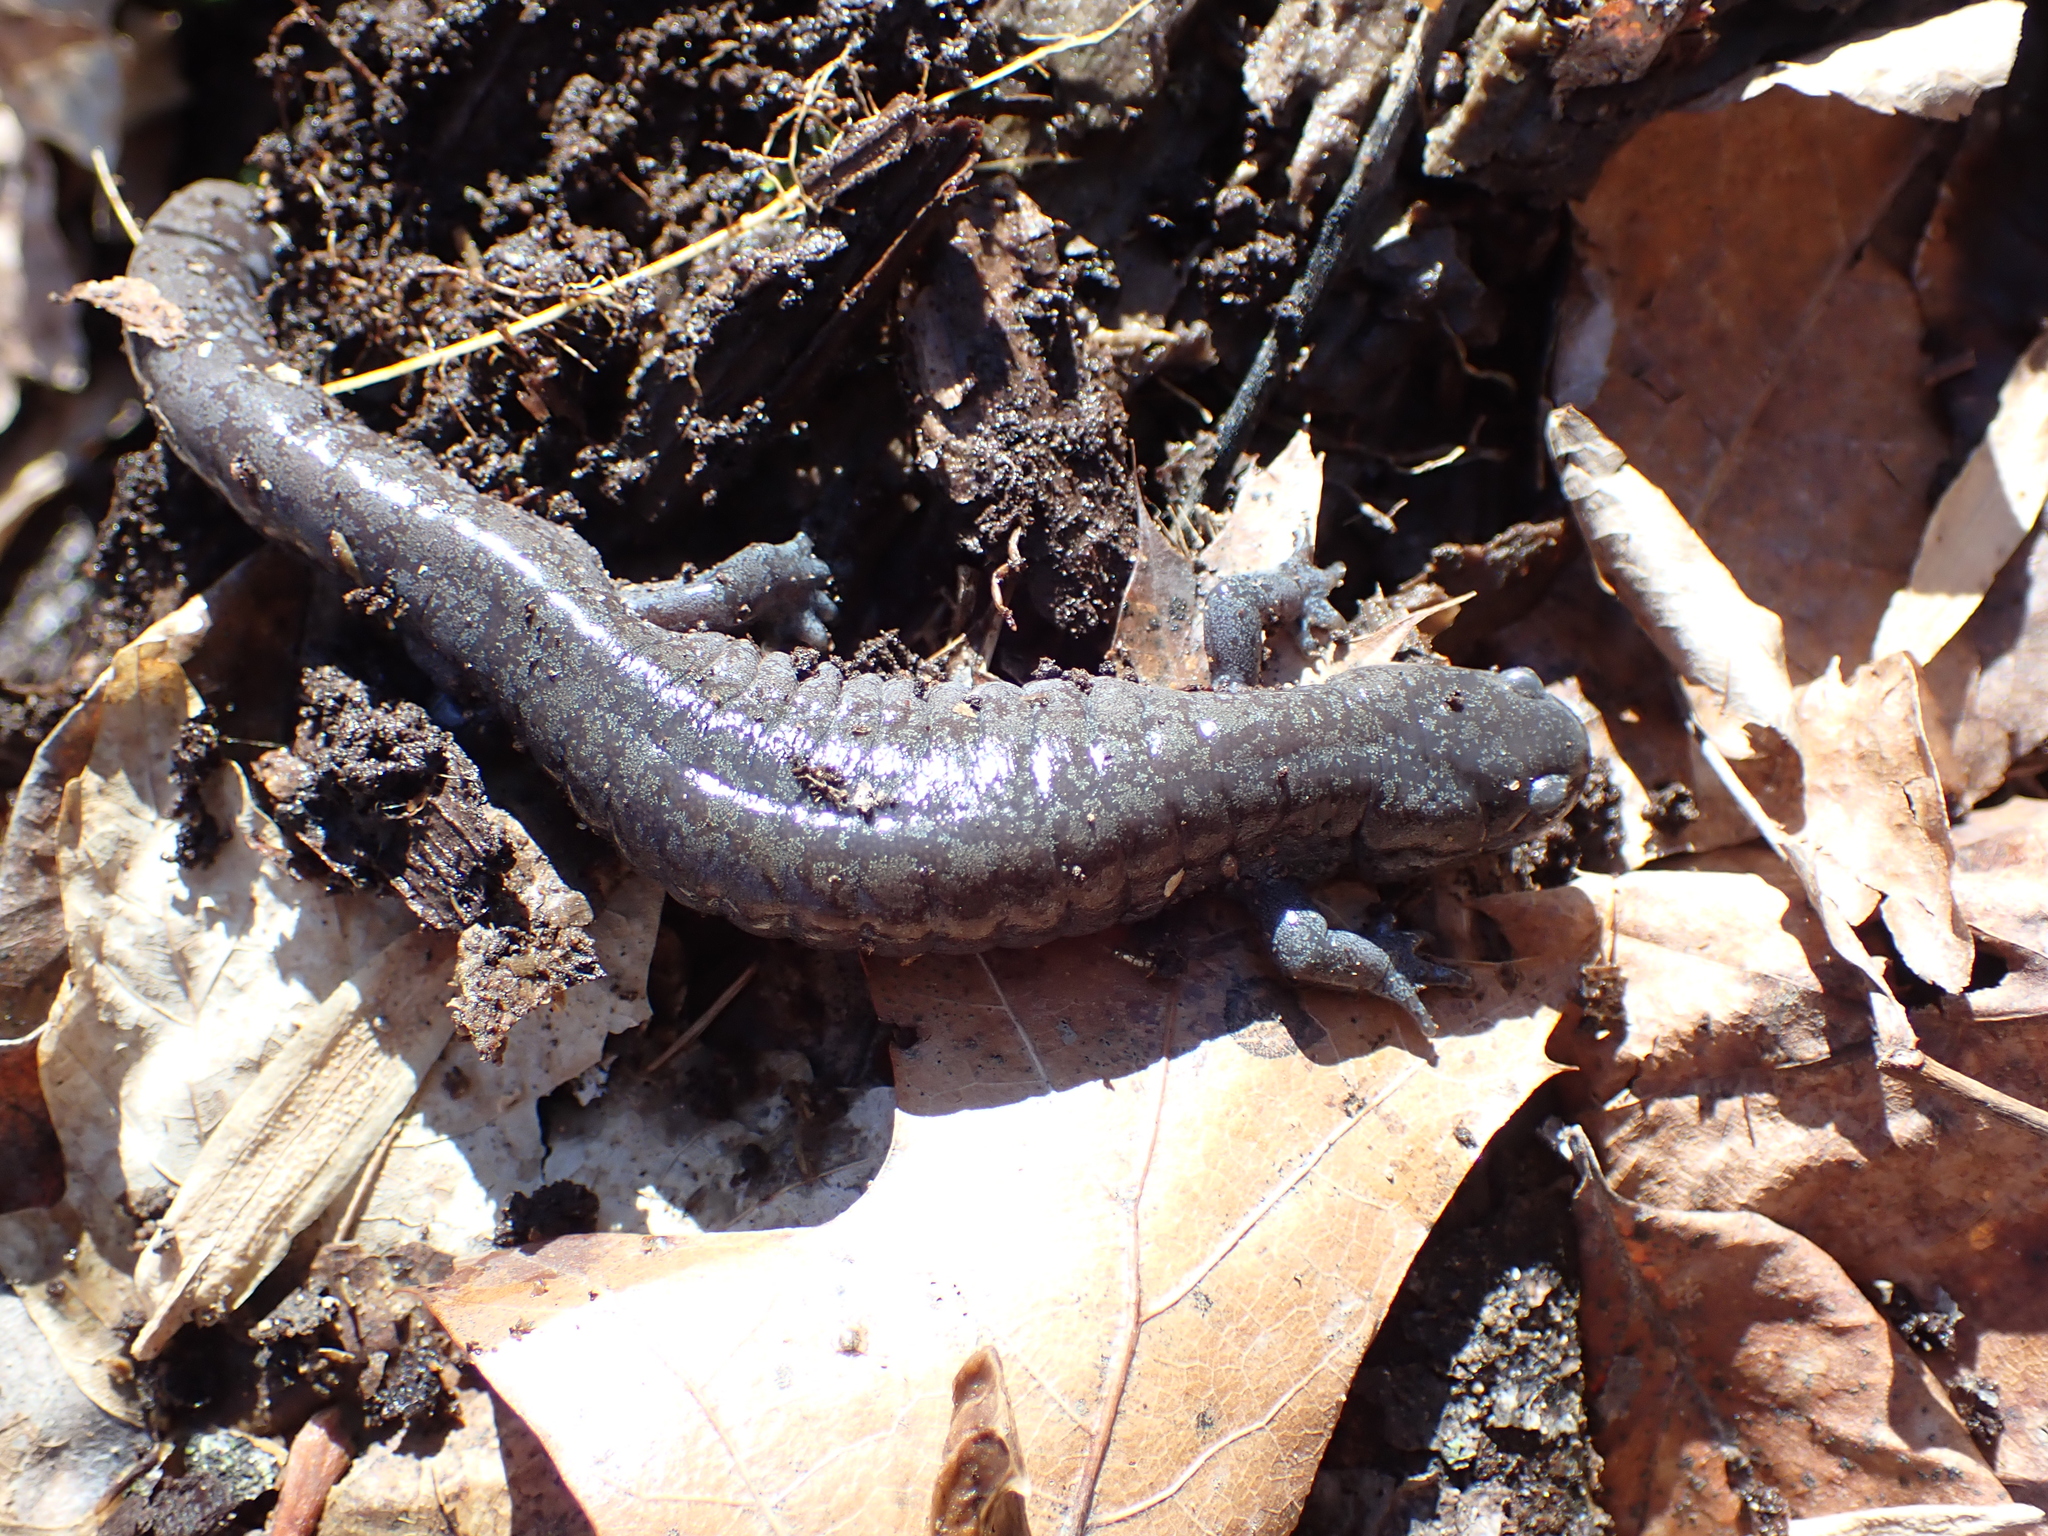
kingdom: Animalia
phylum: Chordata
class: Amphibia
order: Caudata
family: Ambystomatidae
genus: Ambystoma
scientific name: Ambystoma barbouri
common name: Streamside salamander
